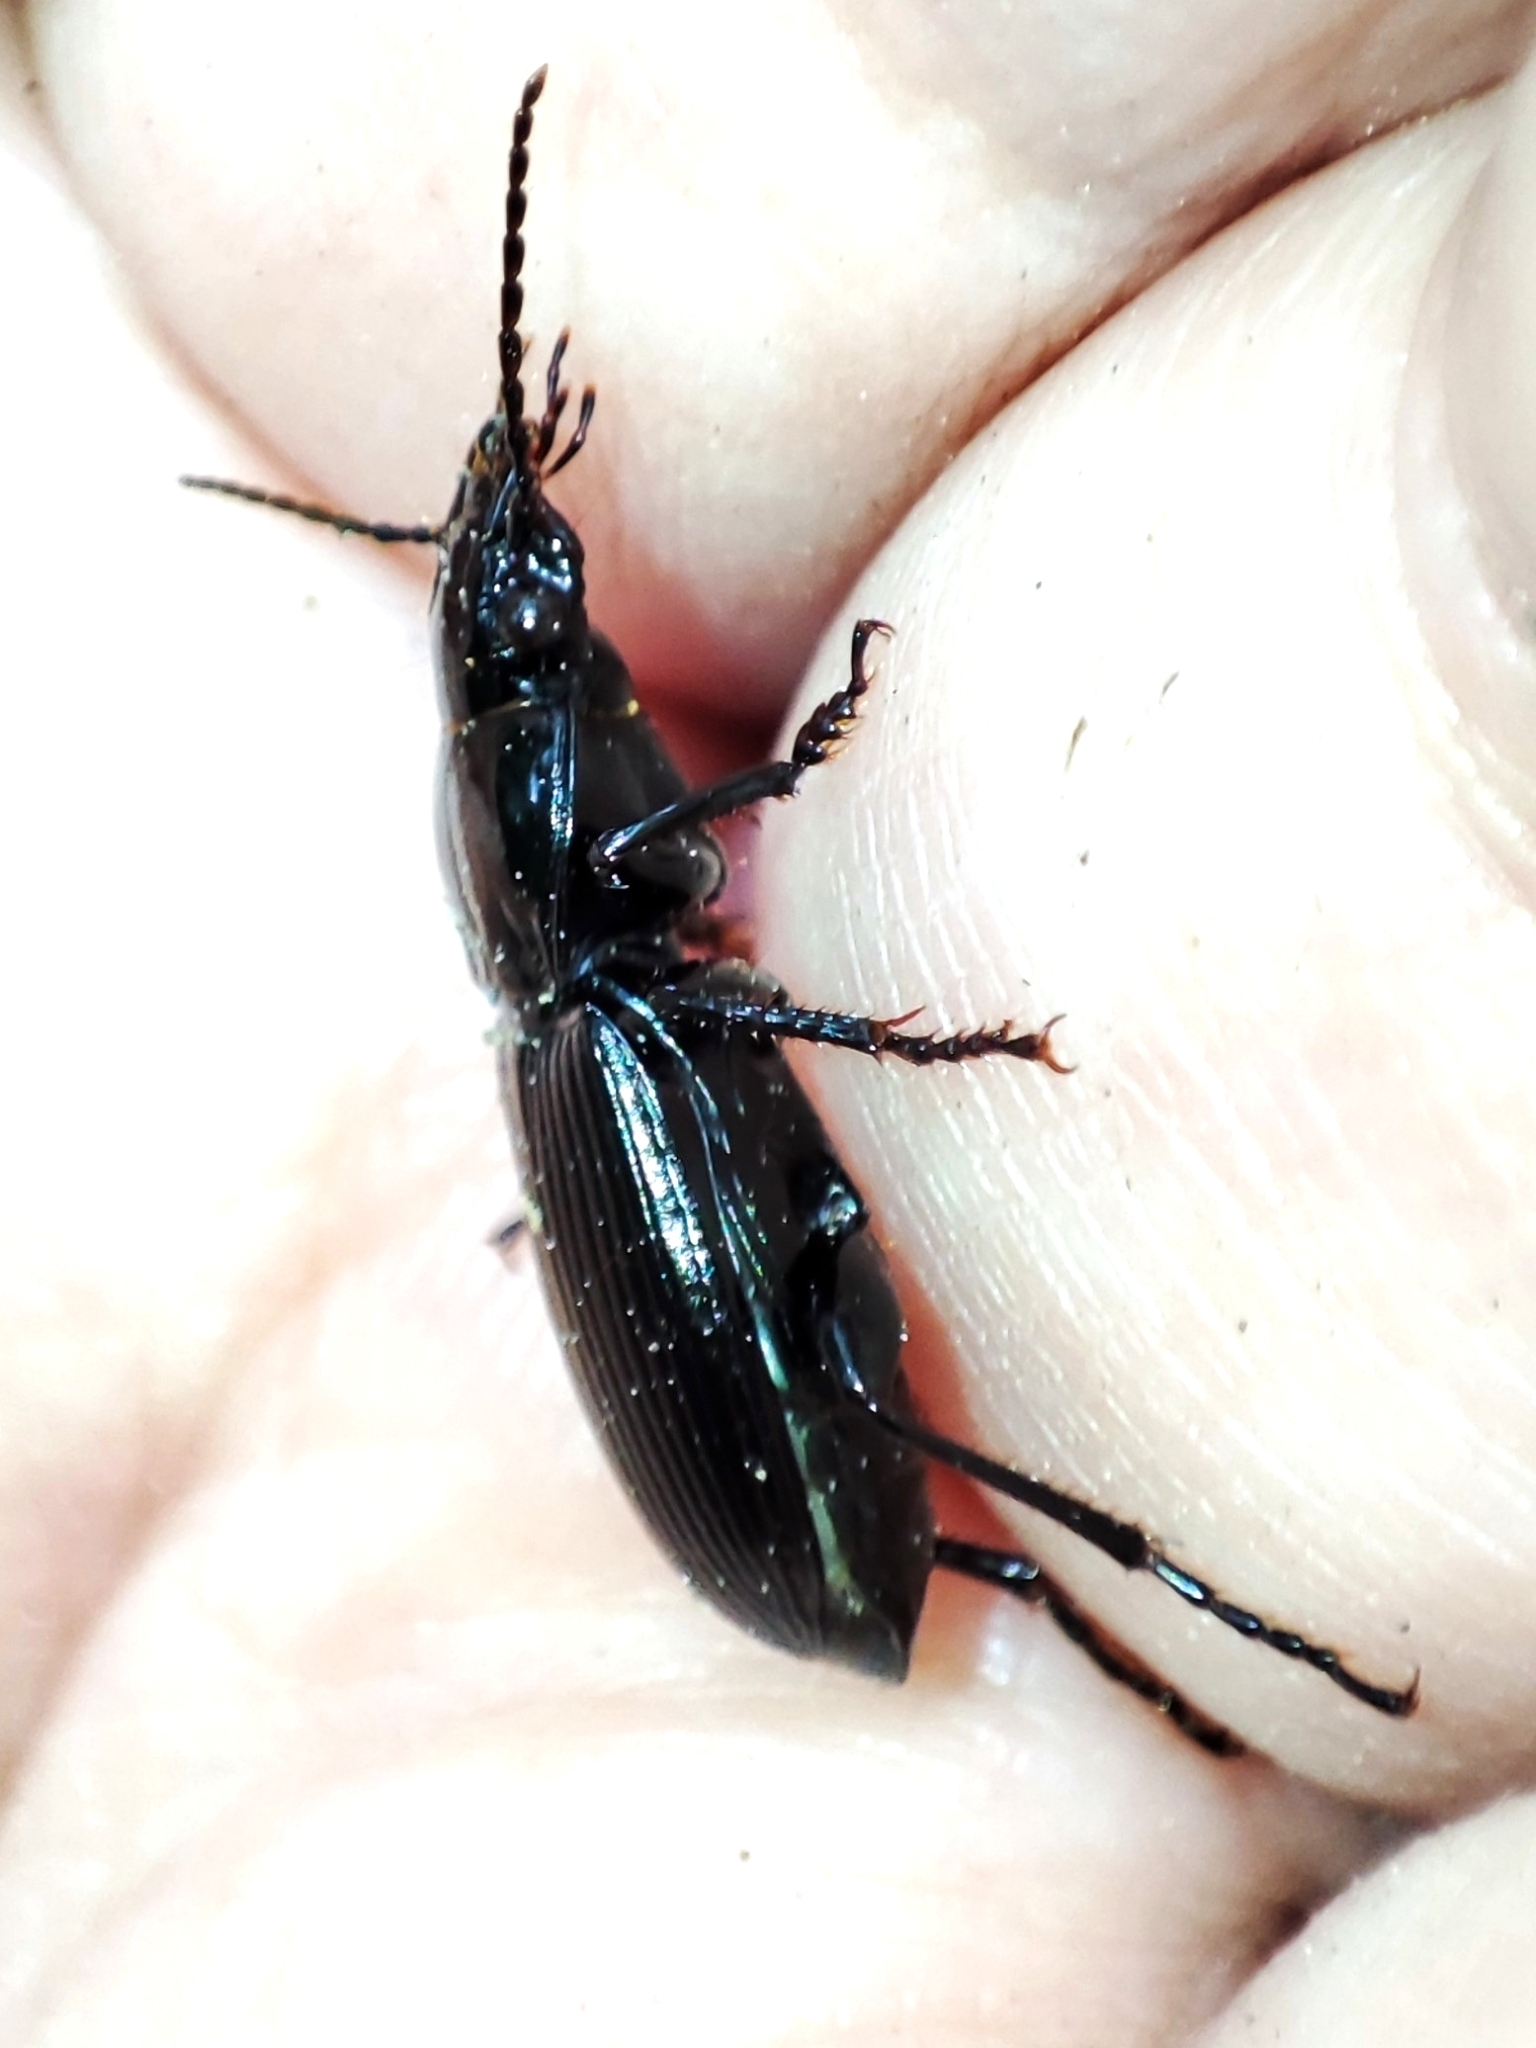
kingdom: Animalia
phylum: Arthropoda
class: Insecta
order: Coleoptera
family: Carabidae
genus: Pterostichus
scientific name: Pterostichus melanarius
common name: European dark harp ground beetle
